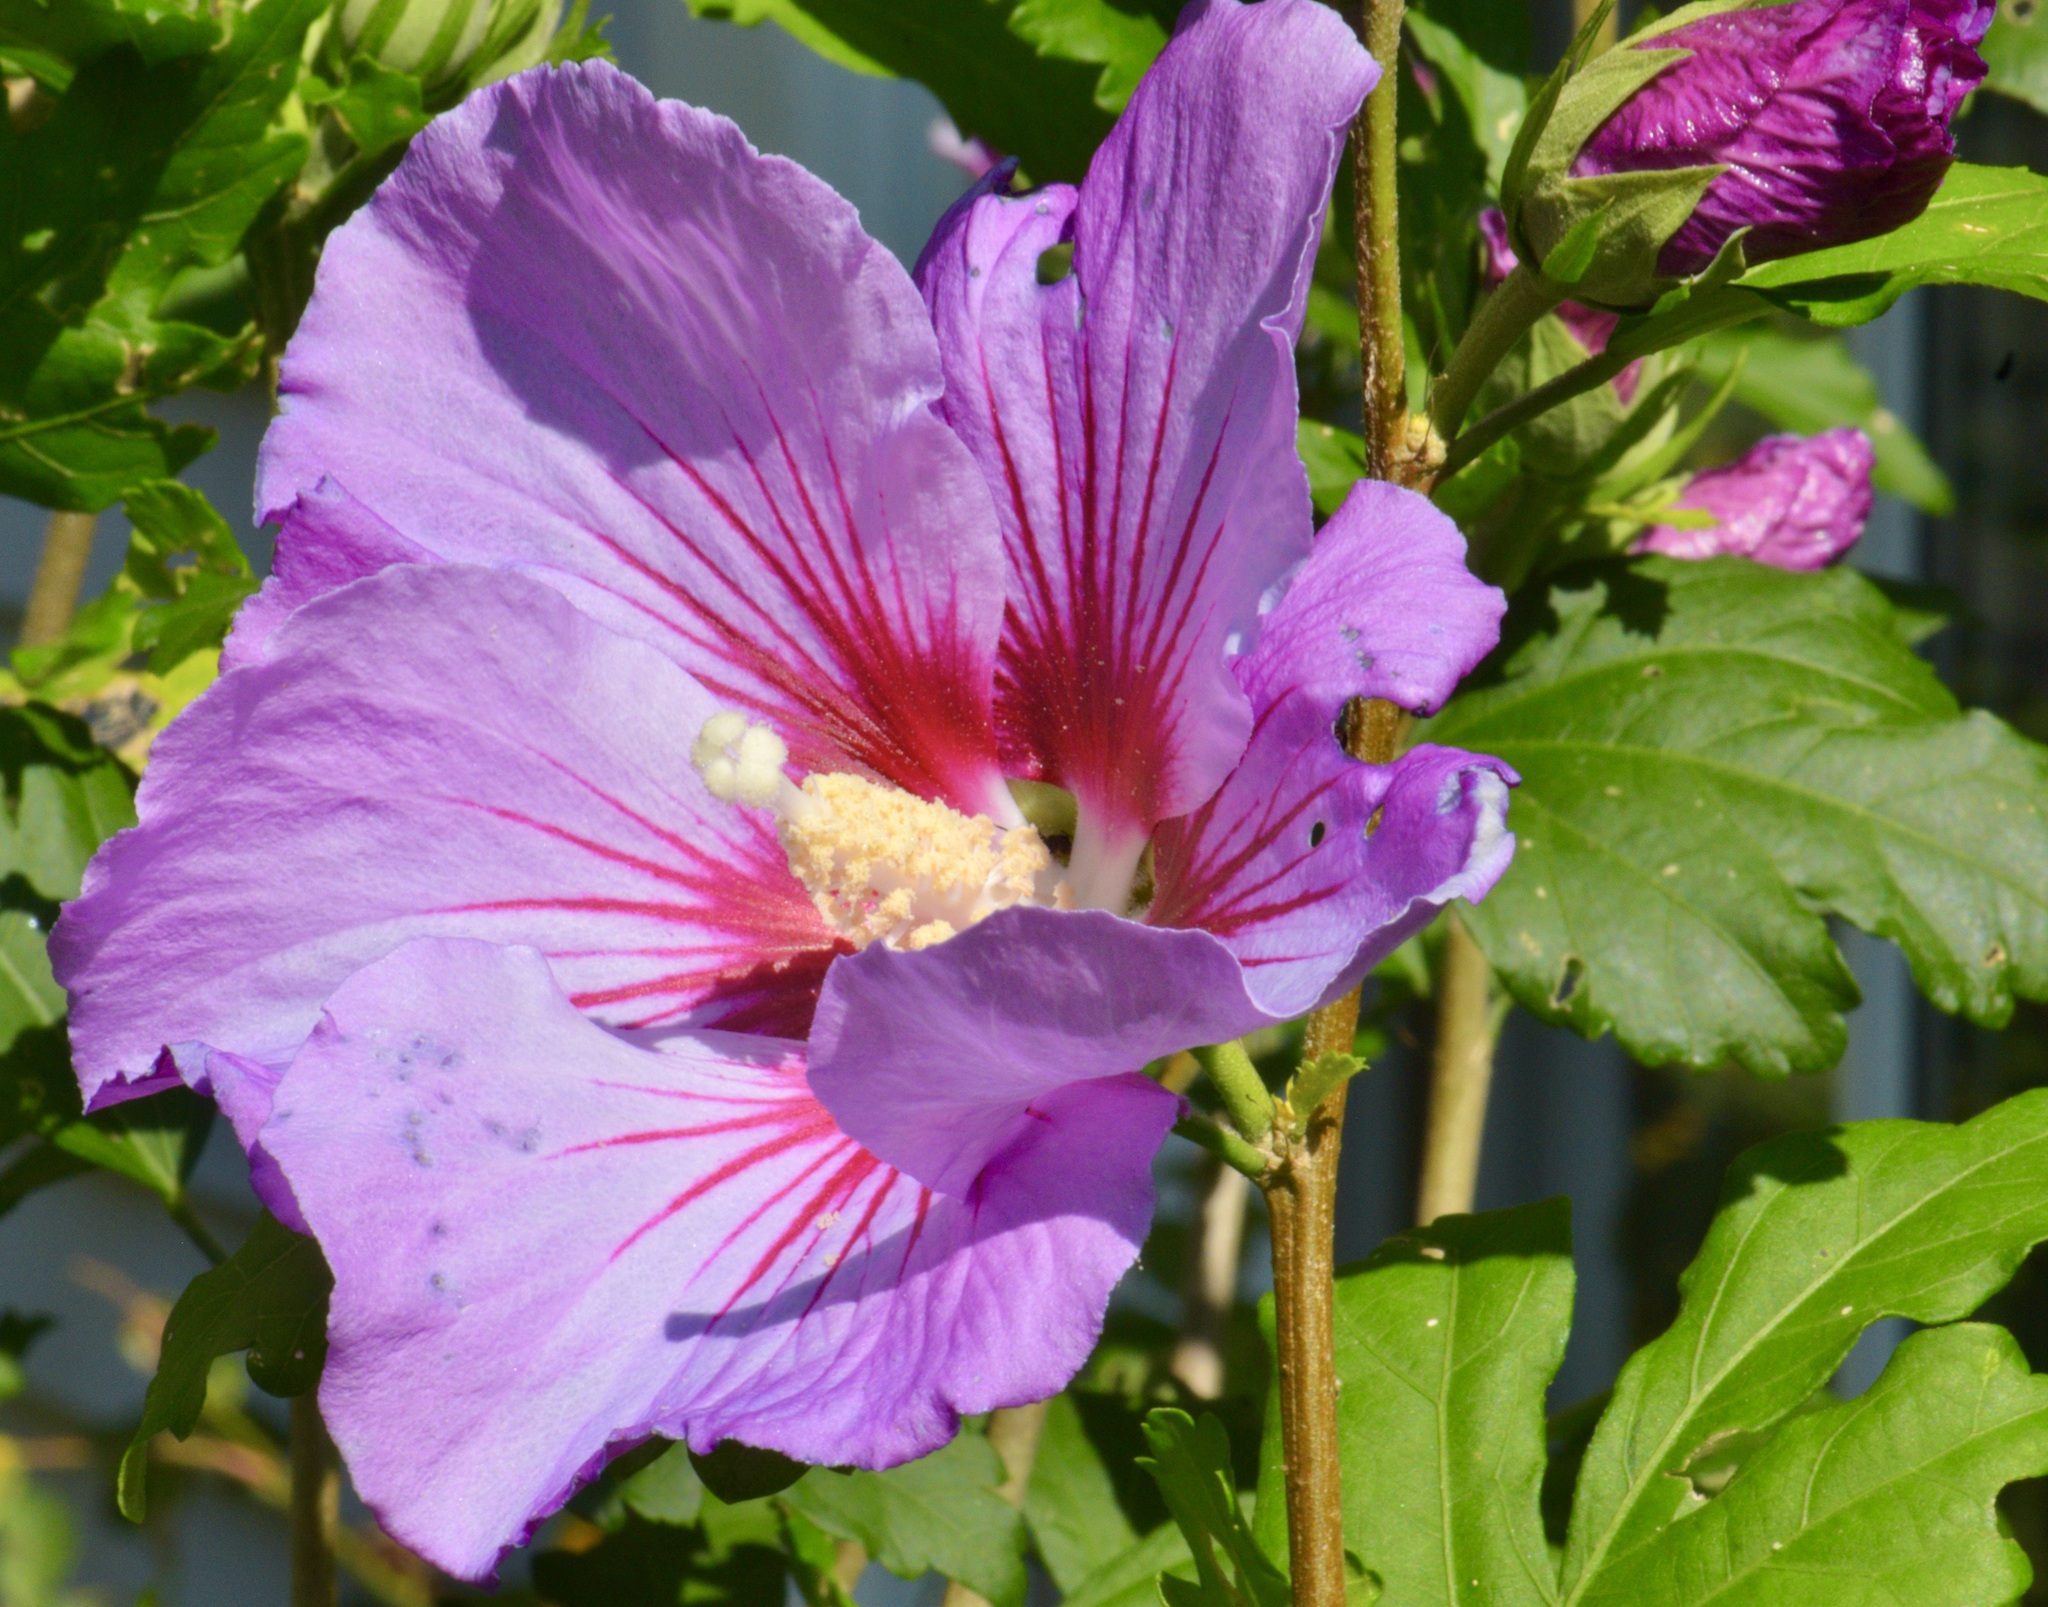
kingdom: Plantae
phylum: Tracheophyta
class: Magnoliopsida
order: Malvales
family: Malvaceae
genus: Hibiscus
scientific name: Hibiscus syriacus
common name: Syrian ketmia
